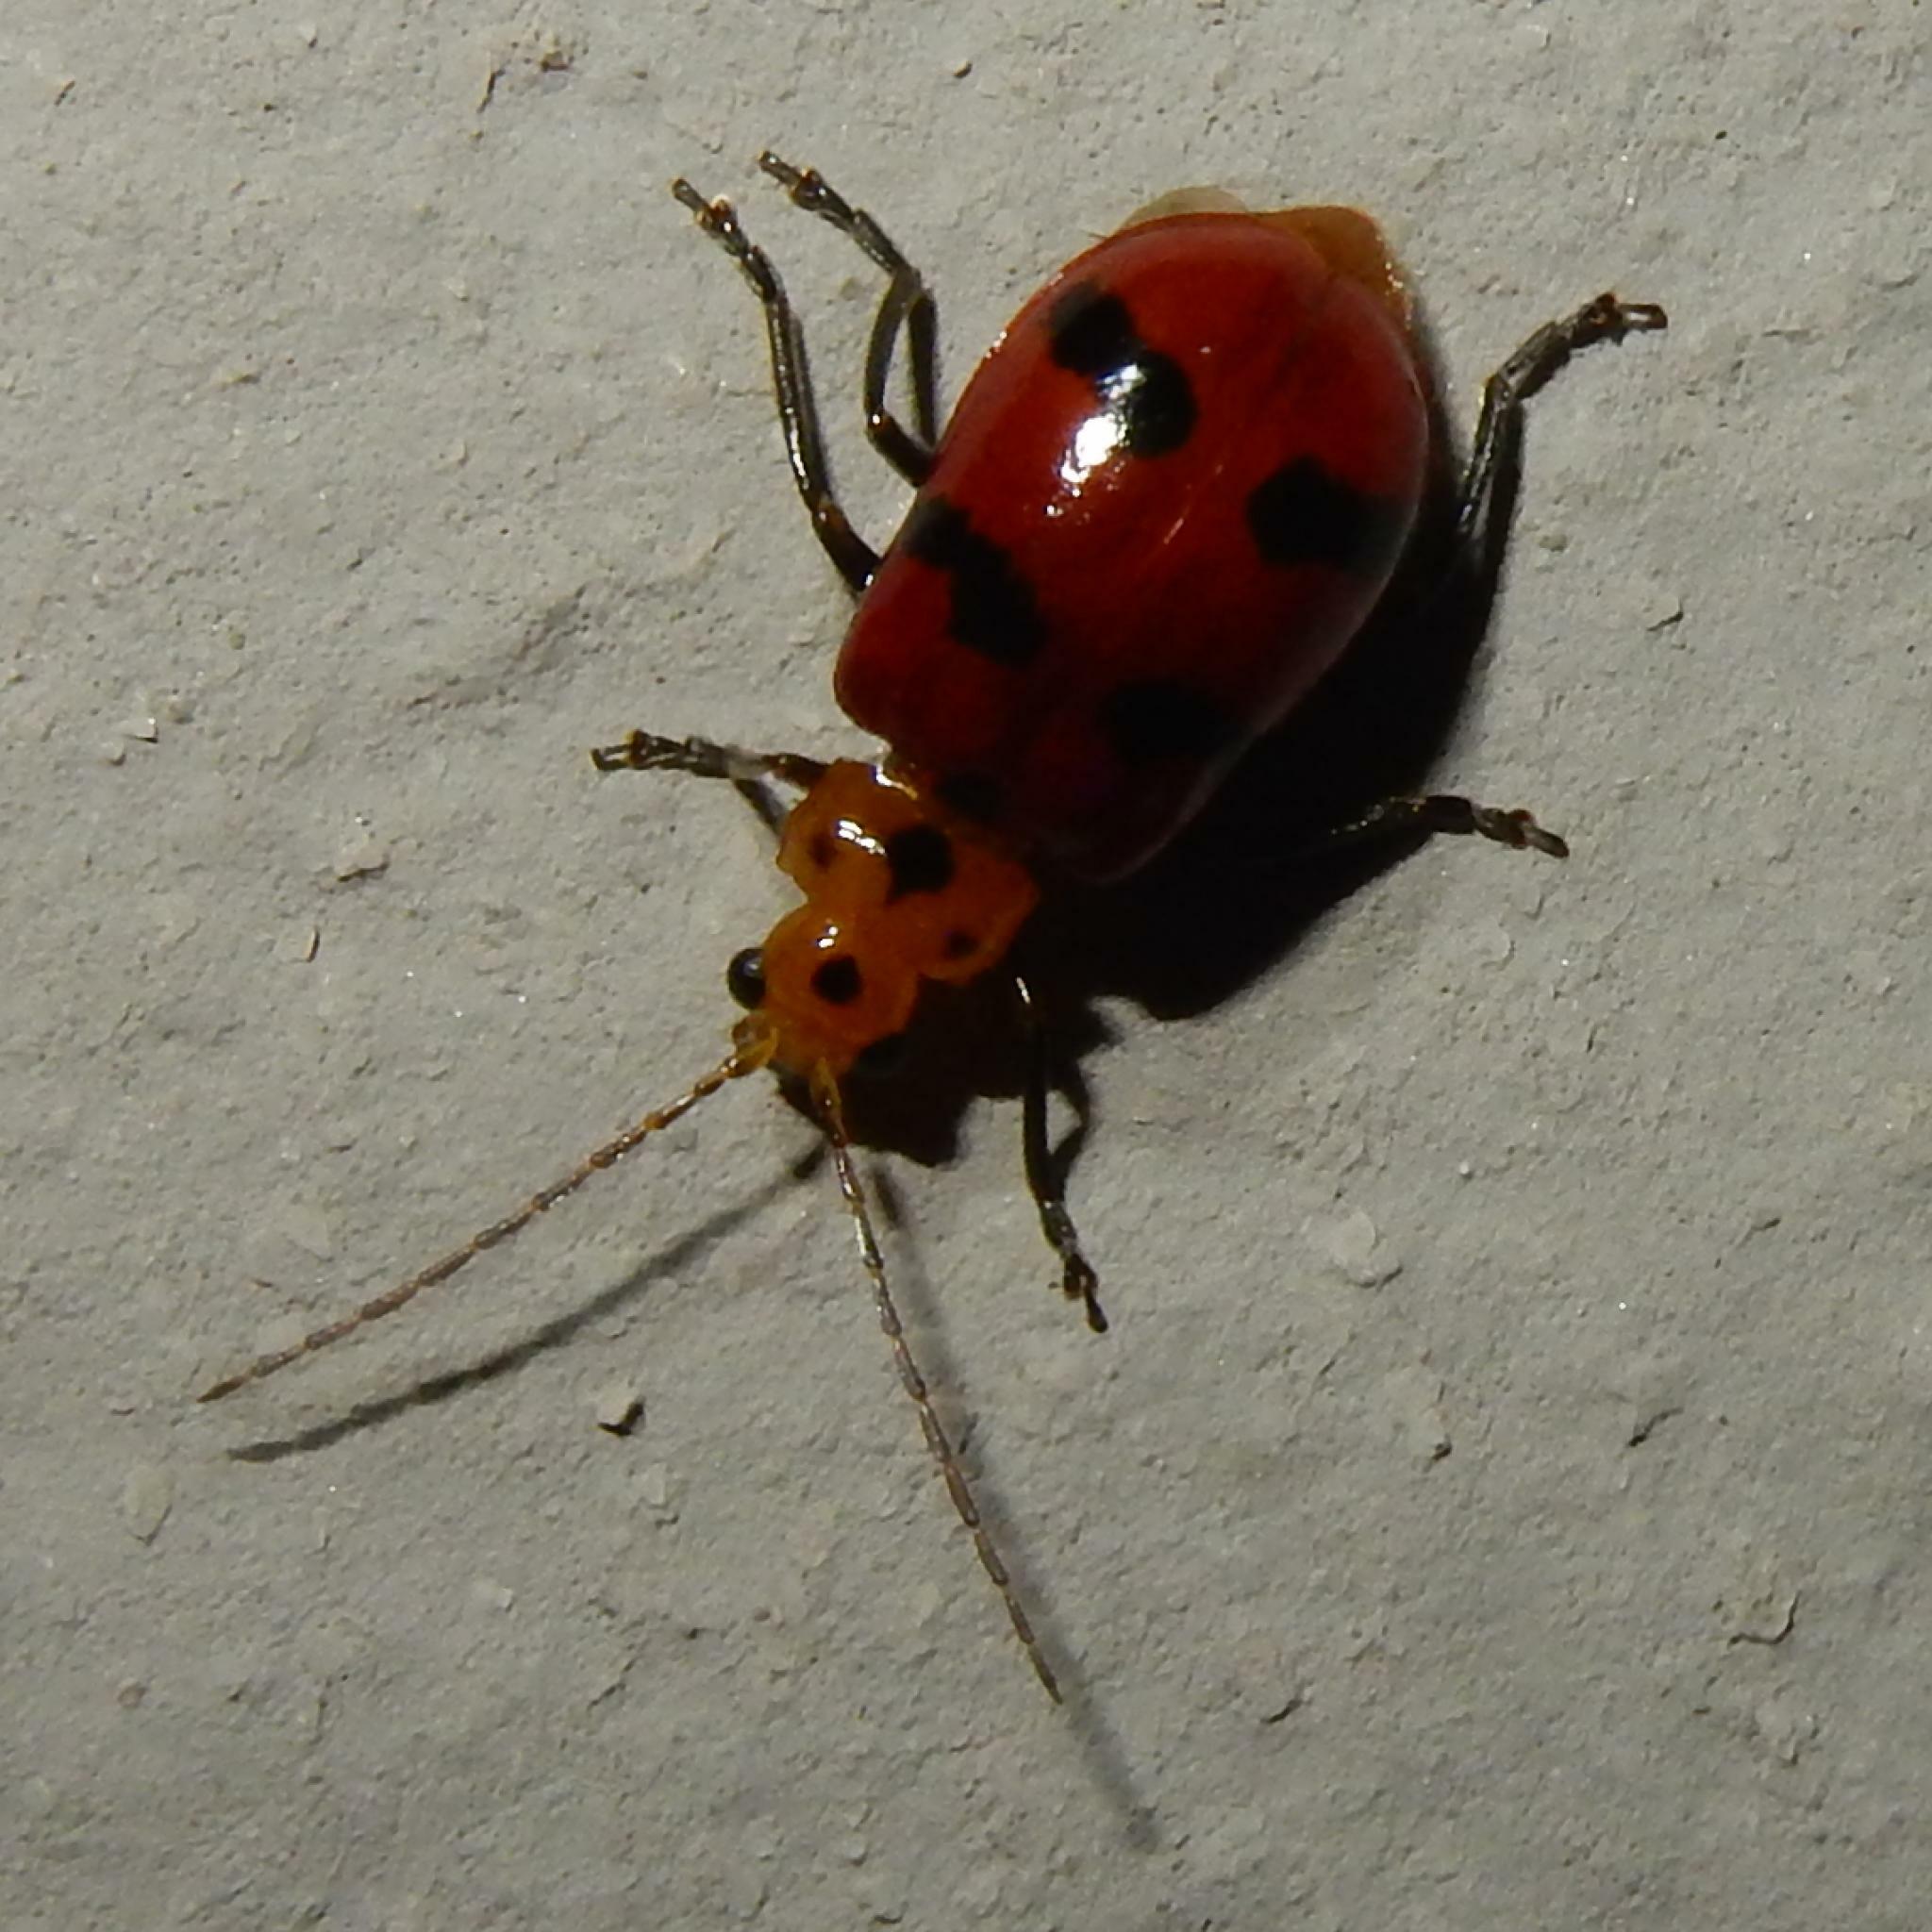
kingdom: Animalia
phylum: Arthropoda
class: Insecta
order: Coleoptera
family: Chrysomelidae
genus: Leptaulaca
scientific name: Leptaulaca
